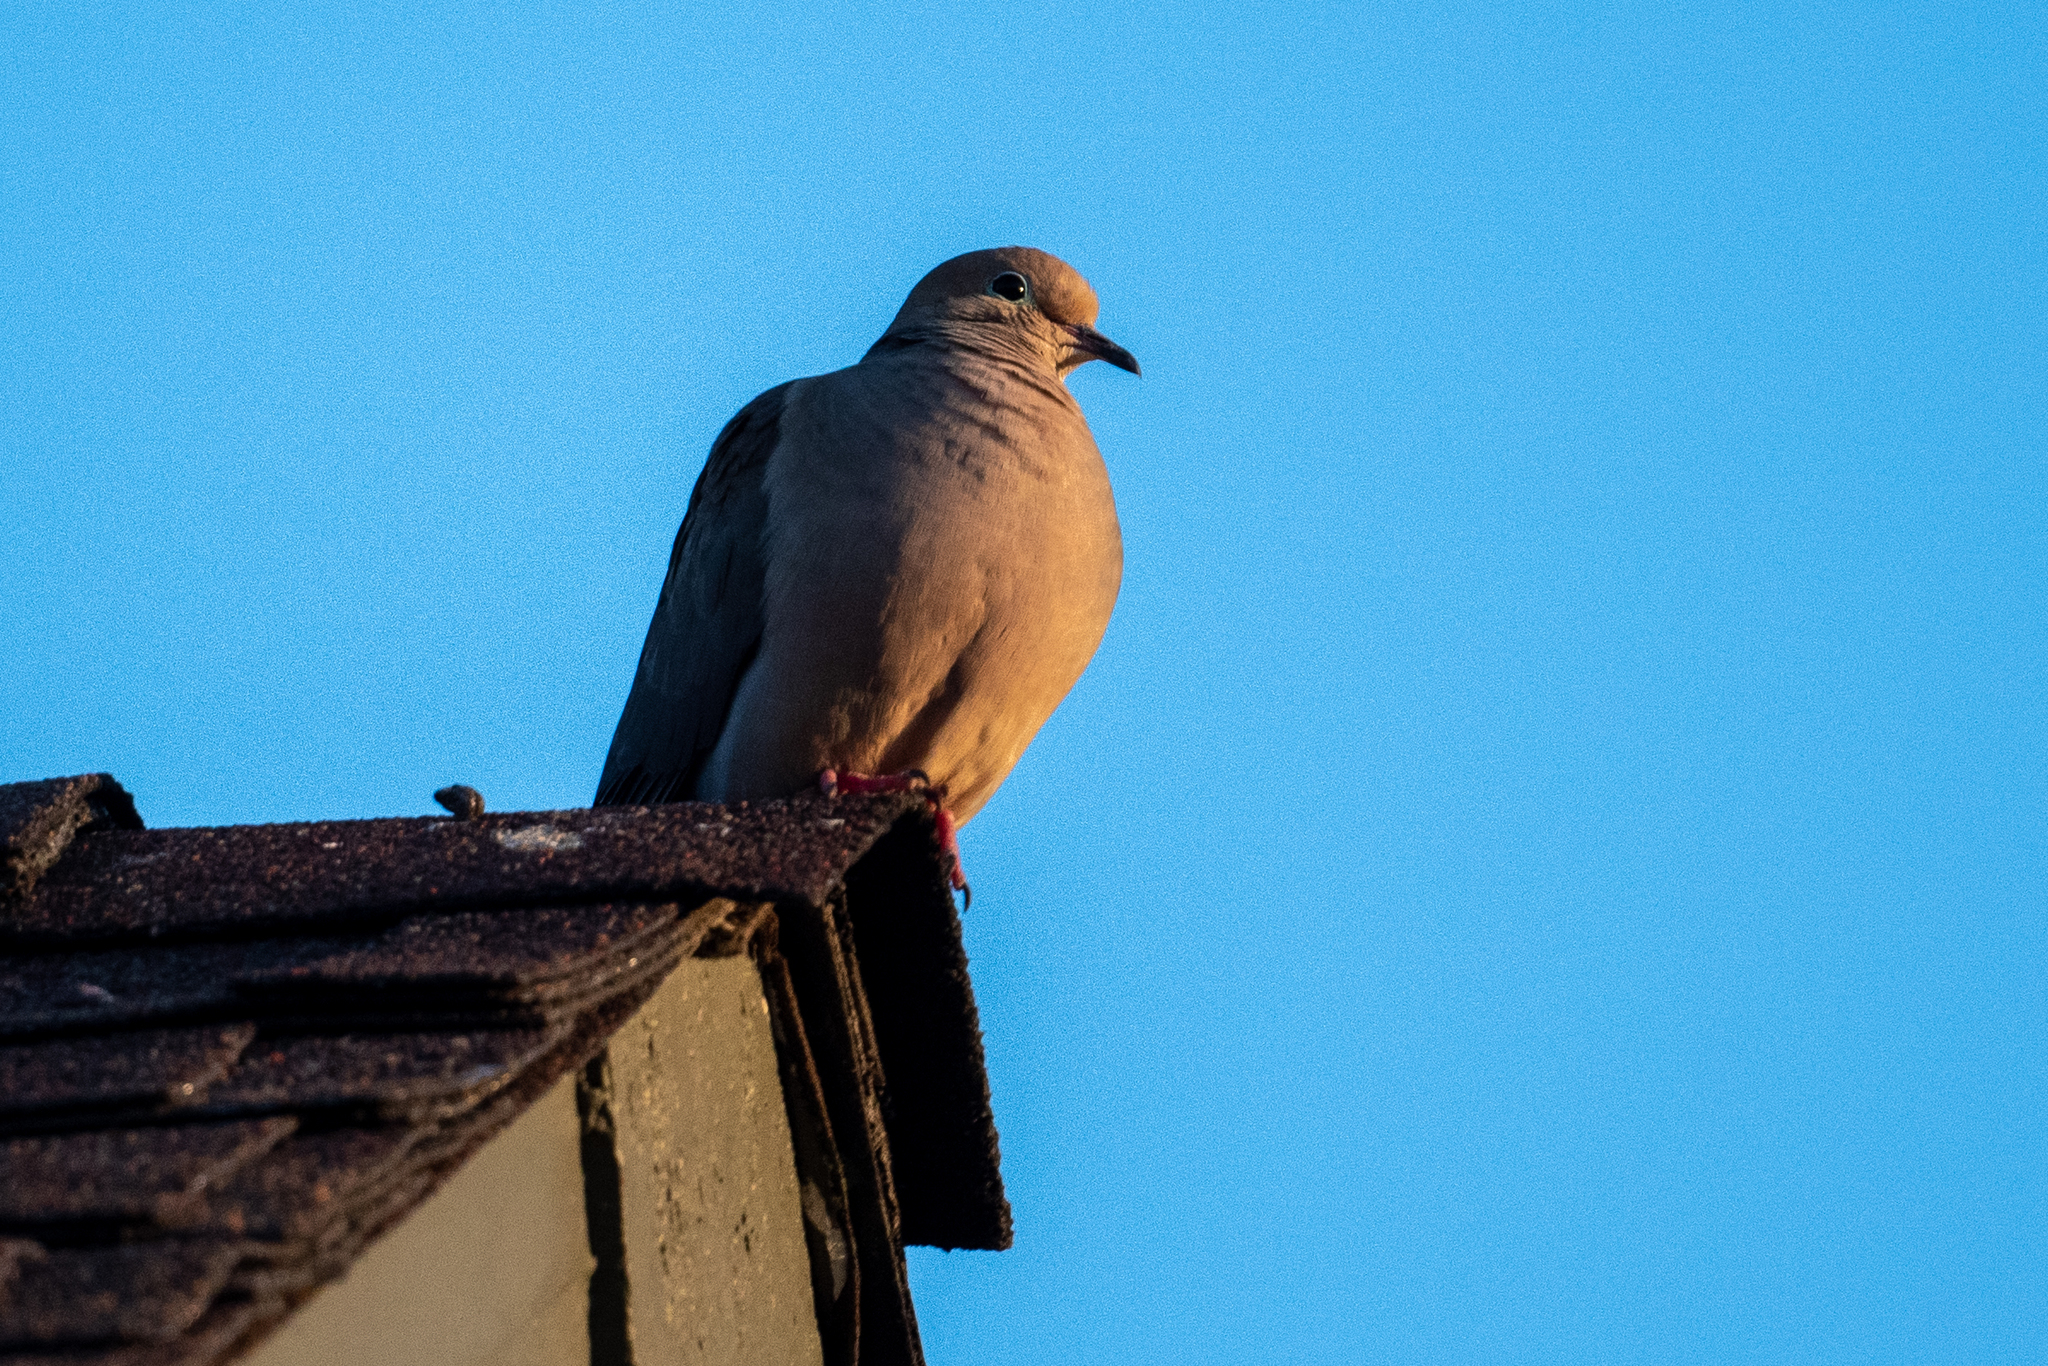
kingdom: Animalia
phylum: Chordata
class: Aves
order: Columbiformes
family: Columbidae
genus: Zenaida
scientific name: Zenaida macroura
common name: Mourning dove
